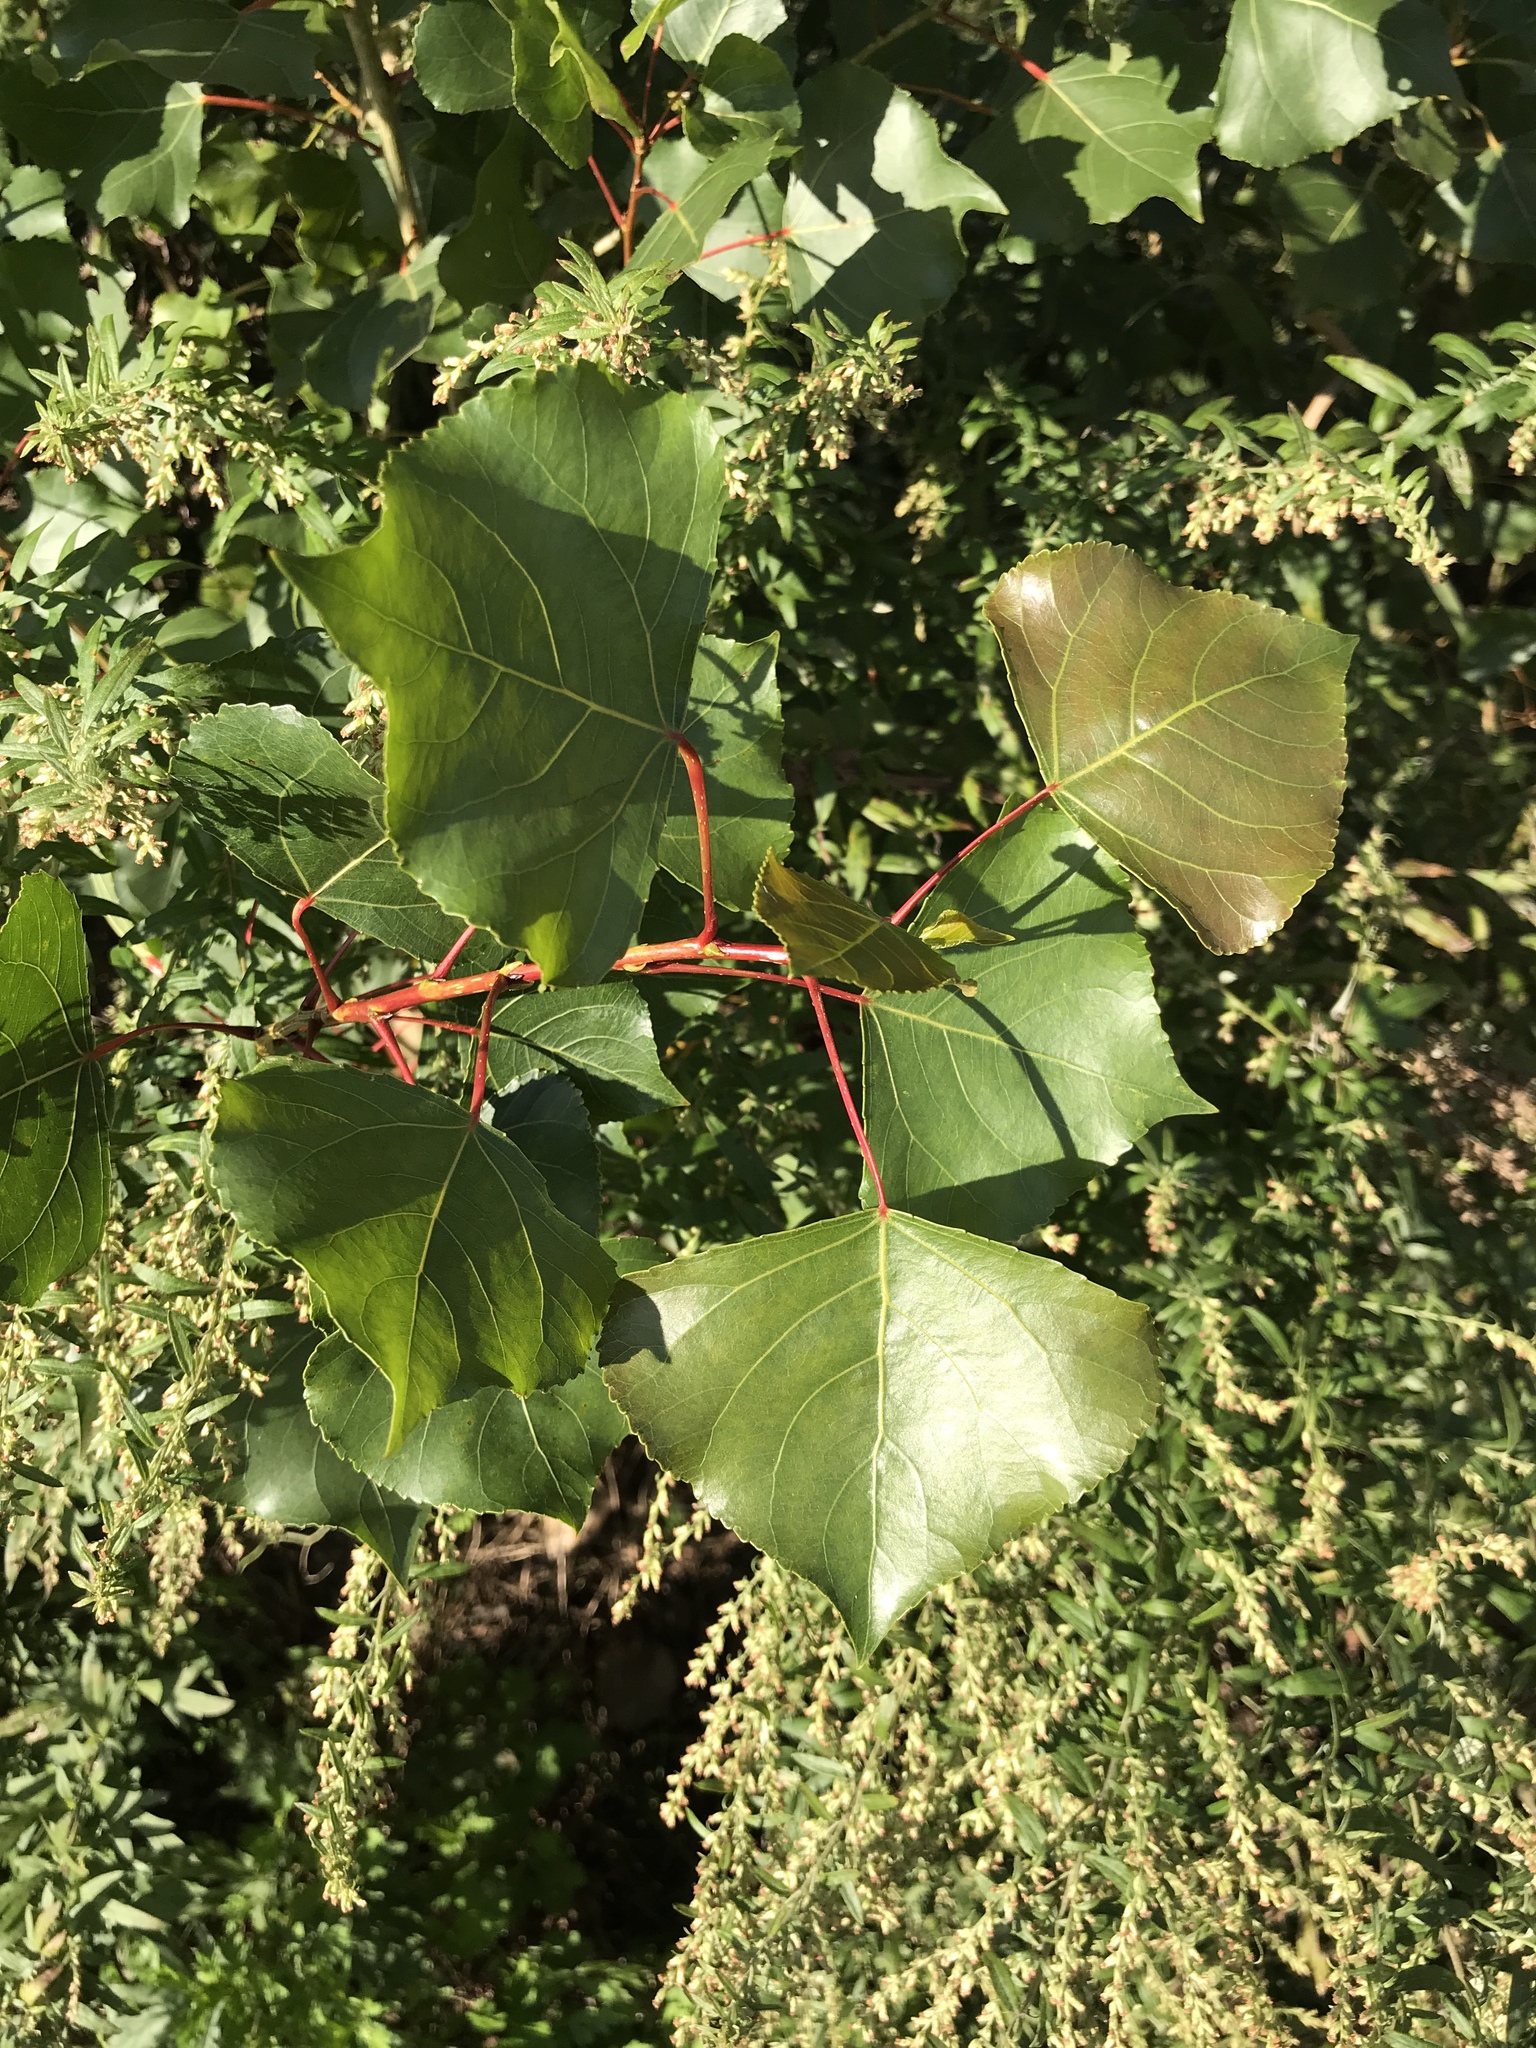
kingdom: Plantae
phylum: Tracheophyta
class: Magnoliopsida
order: Malpighiales
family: Salicaceae
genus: Populus
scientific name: Populus deltoides
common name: Eastern cottonwood
